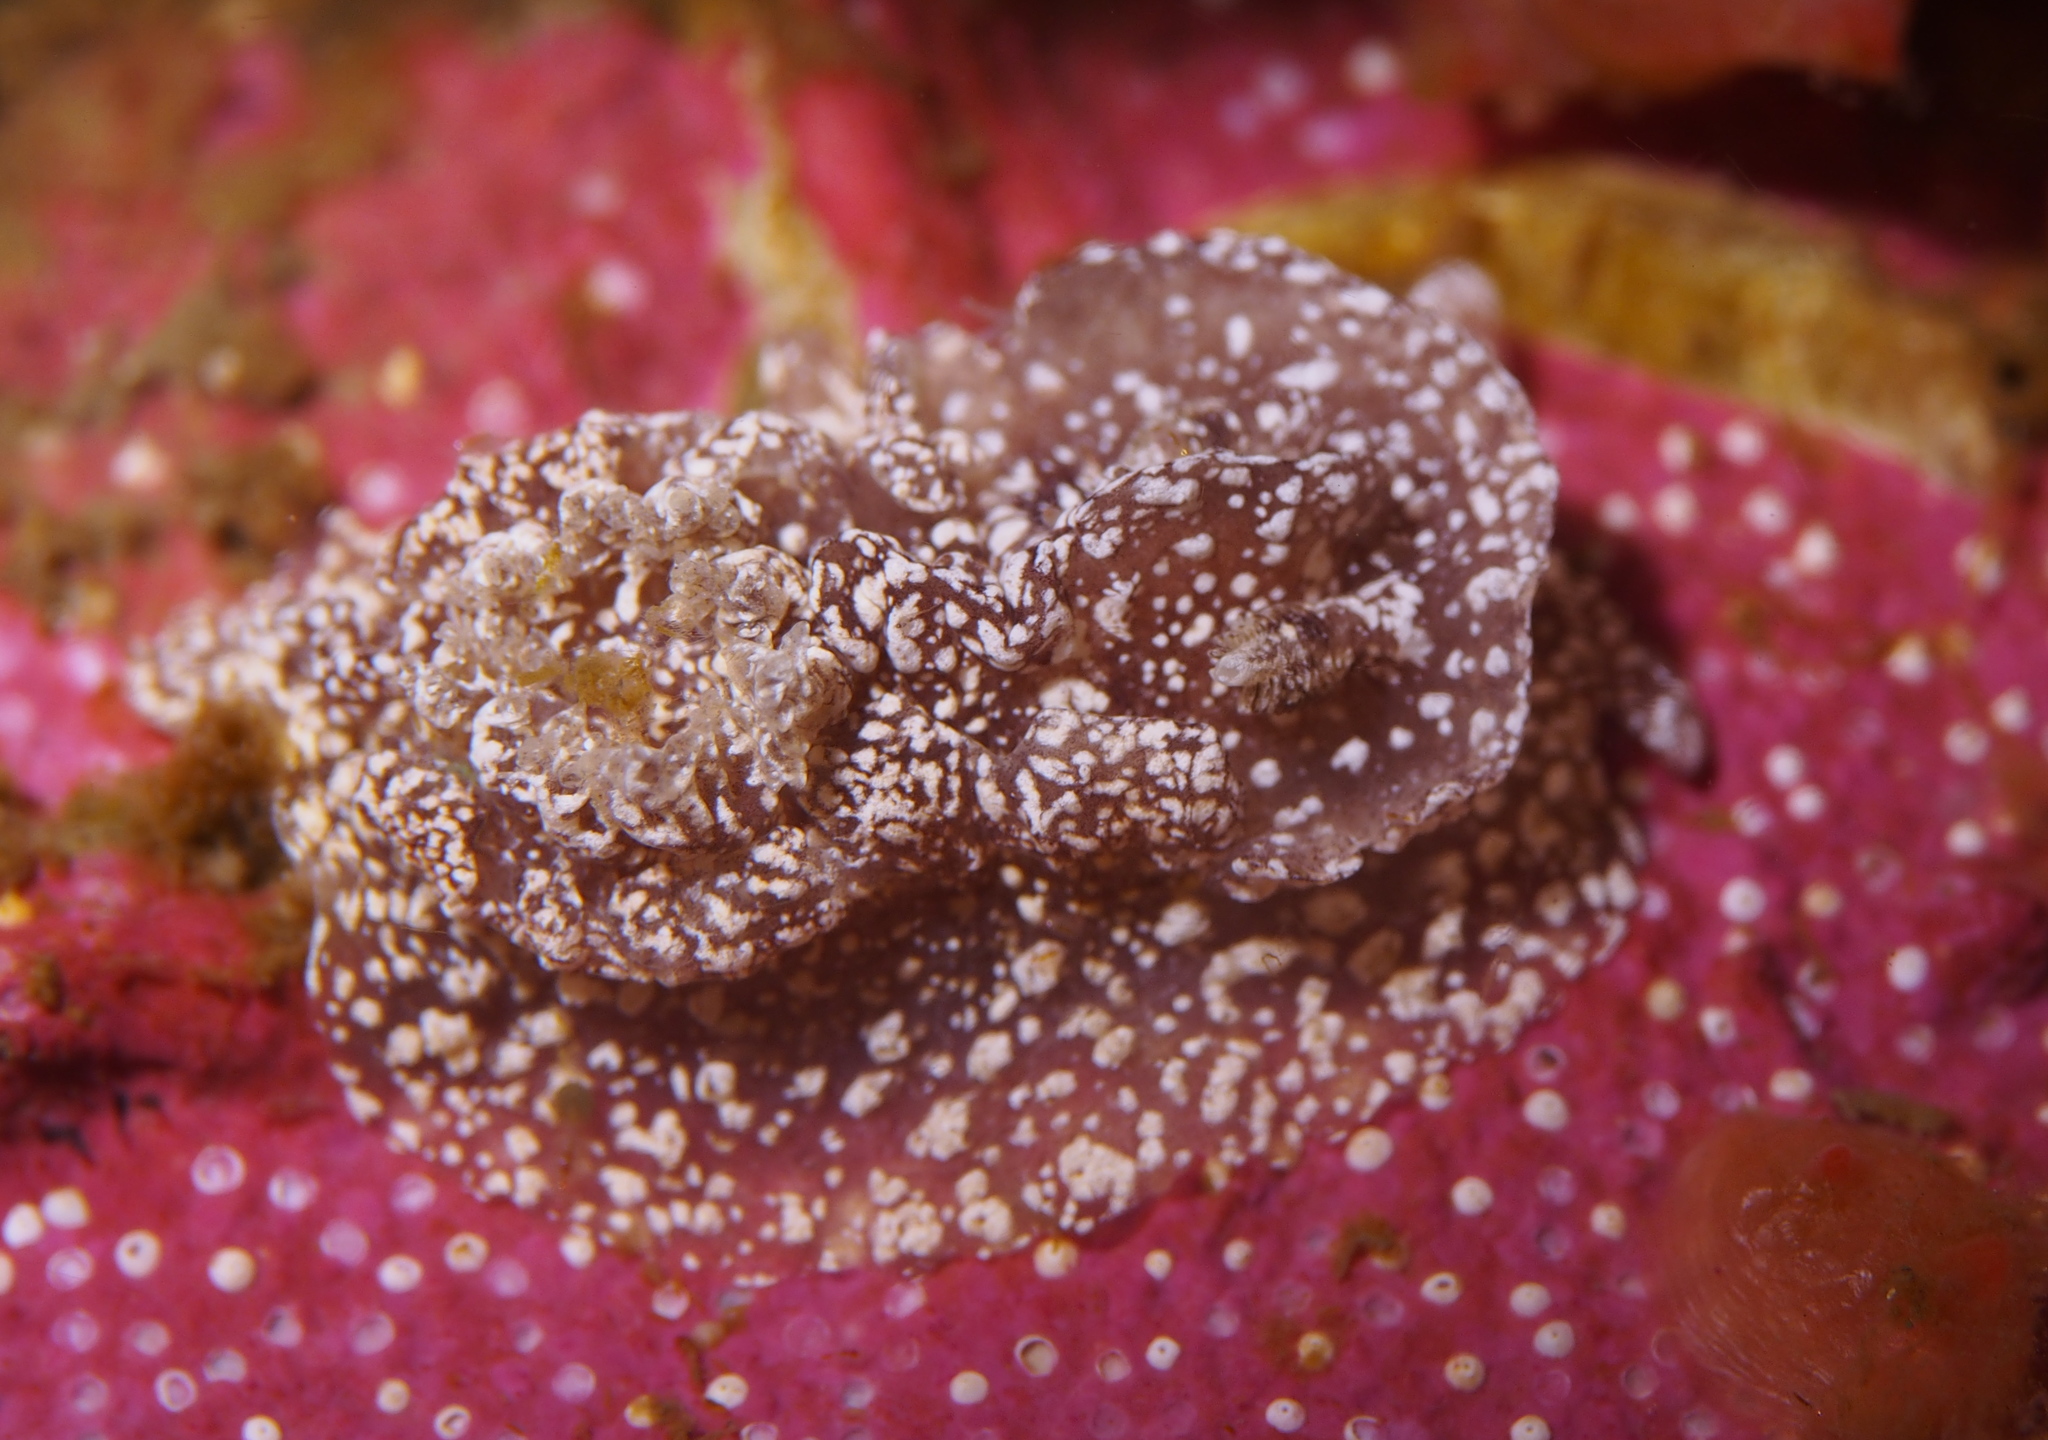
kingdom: Animalia
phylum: Mollusca
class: Gastropoda
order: Nudibranchia
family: Goniodorididae
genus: Pelagella
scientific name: Pelagella castanea
